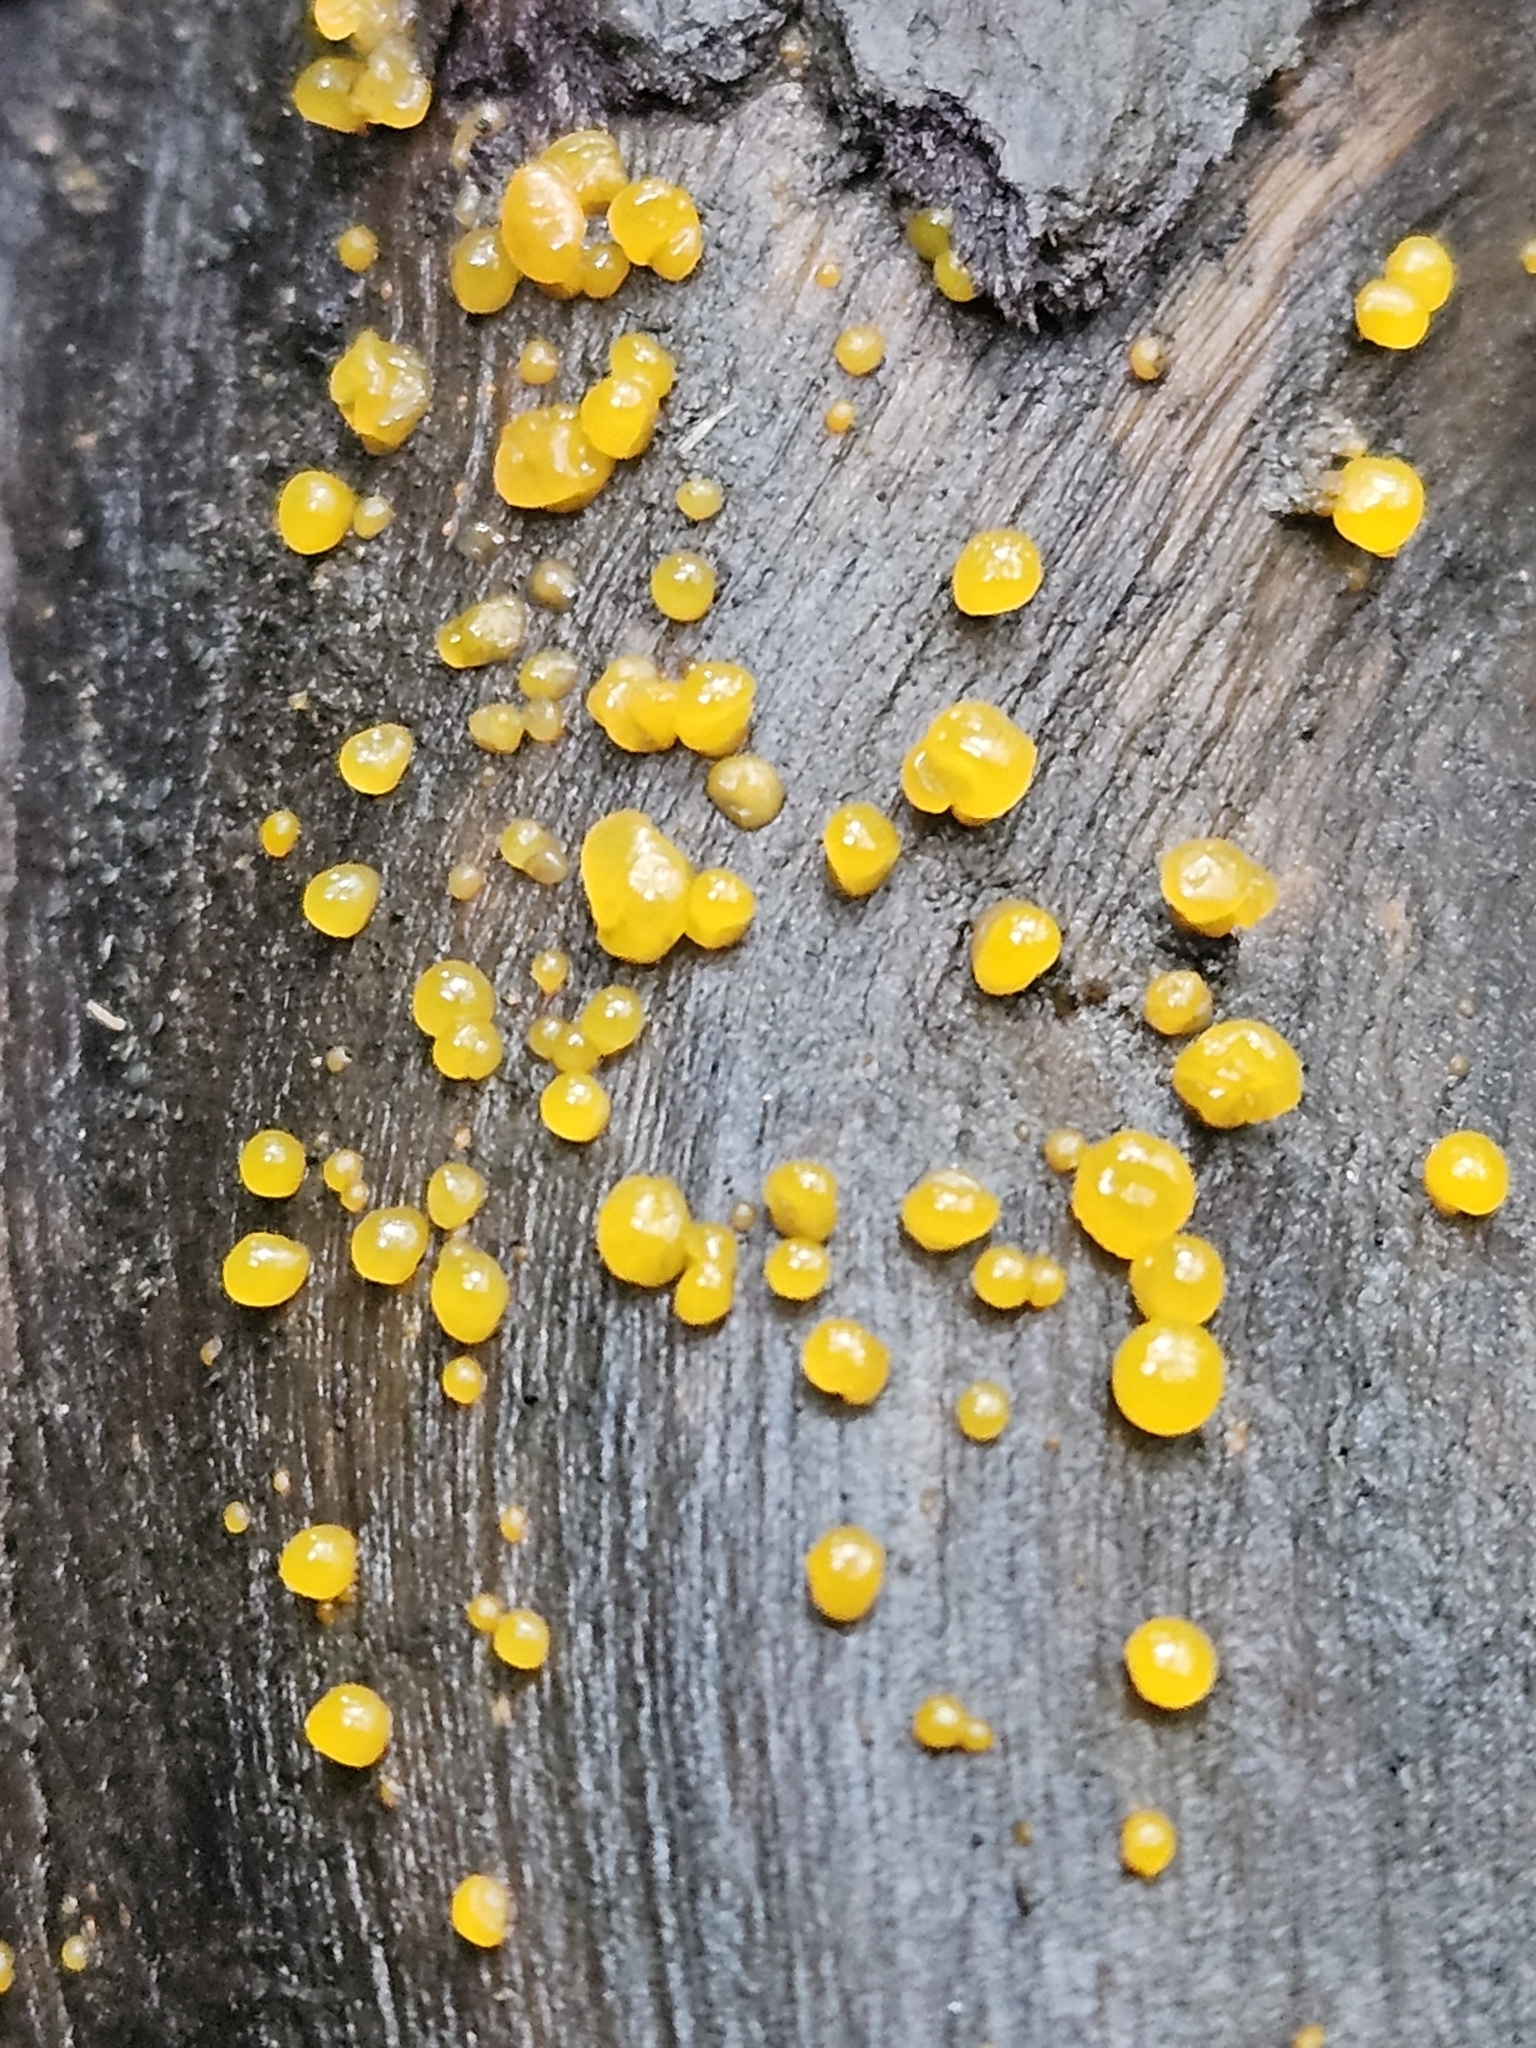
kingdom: Fungi
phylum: Basidiomycota
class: Dacrymycetes
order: Dacrymycetales
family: Dacrymycetaceae
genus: Dacrymyces
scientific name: Dacrymyces stillatus
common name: Common jelly spot
